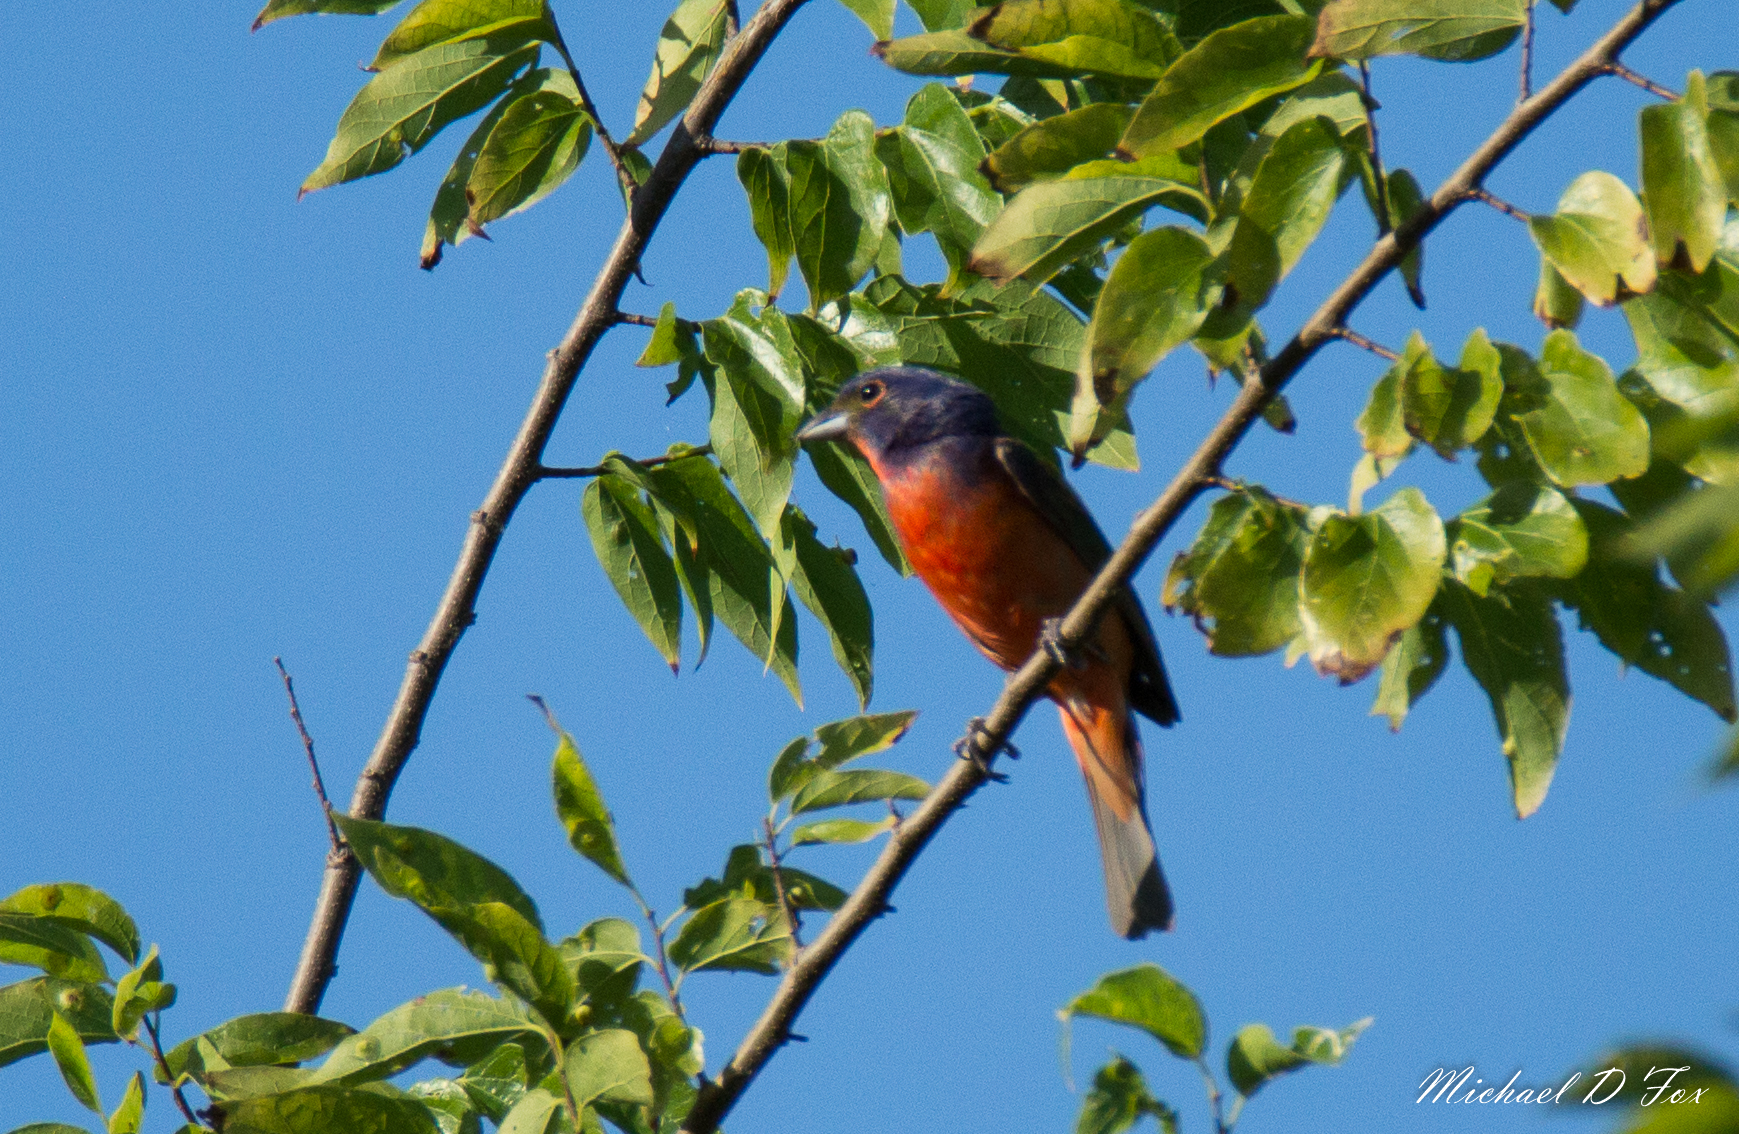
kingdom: Animalia
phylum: Chordata
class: Aves
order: Passeriformes
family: Cardinalidae
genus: Passerina
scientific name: Passerina ciris
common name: Painted bunting
